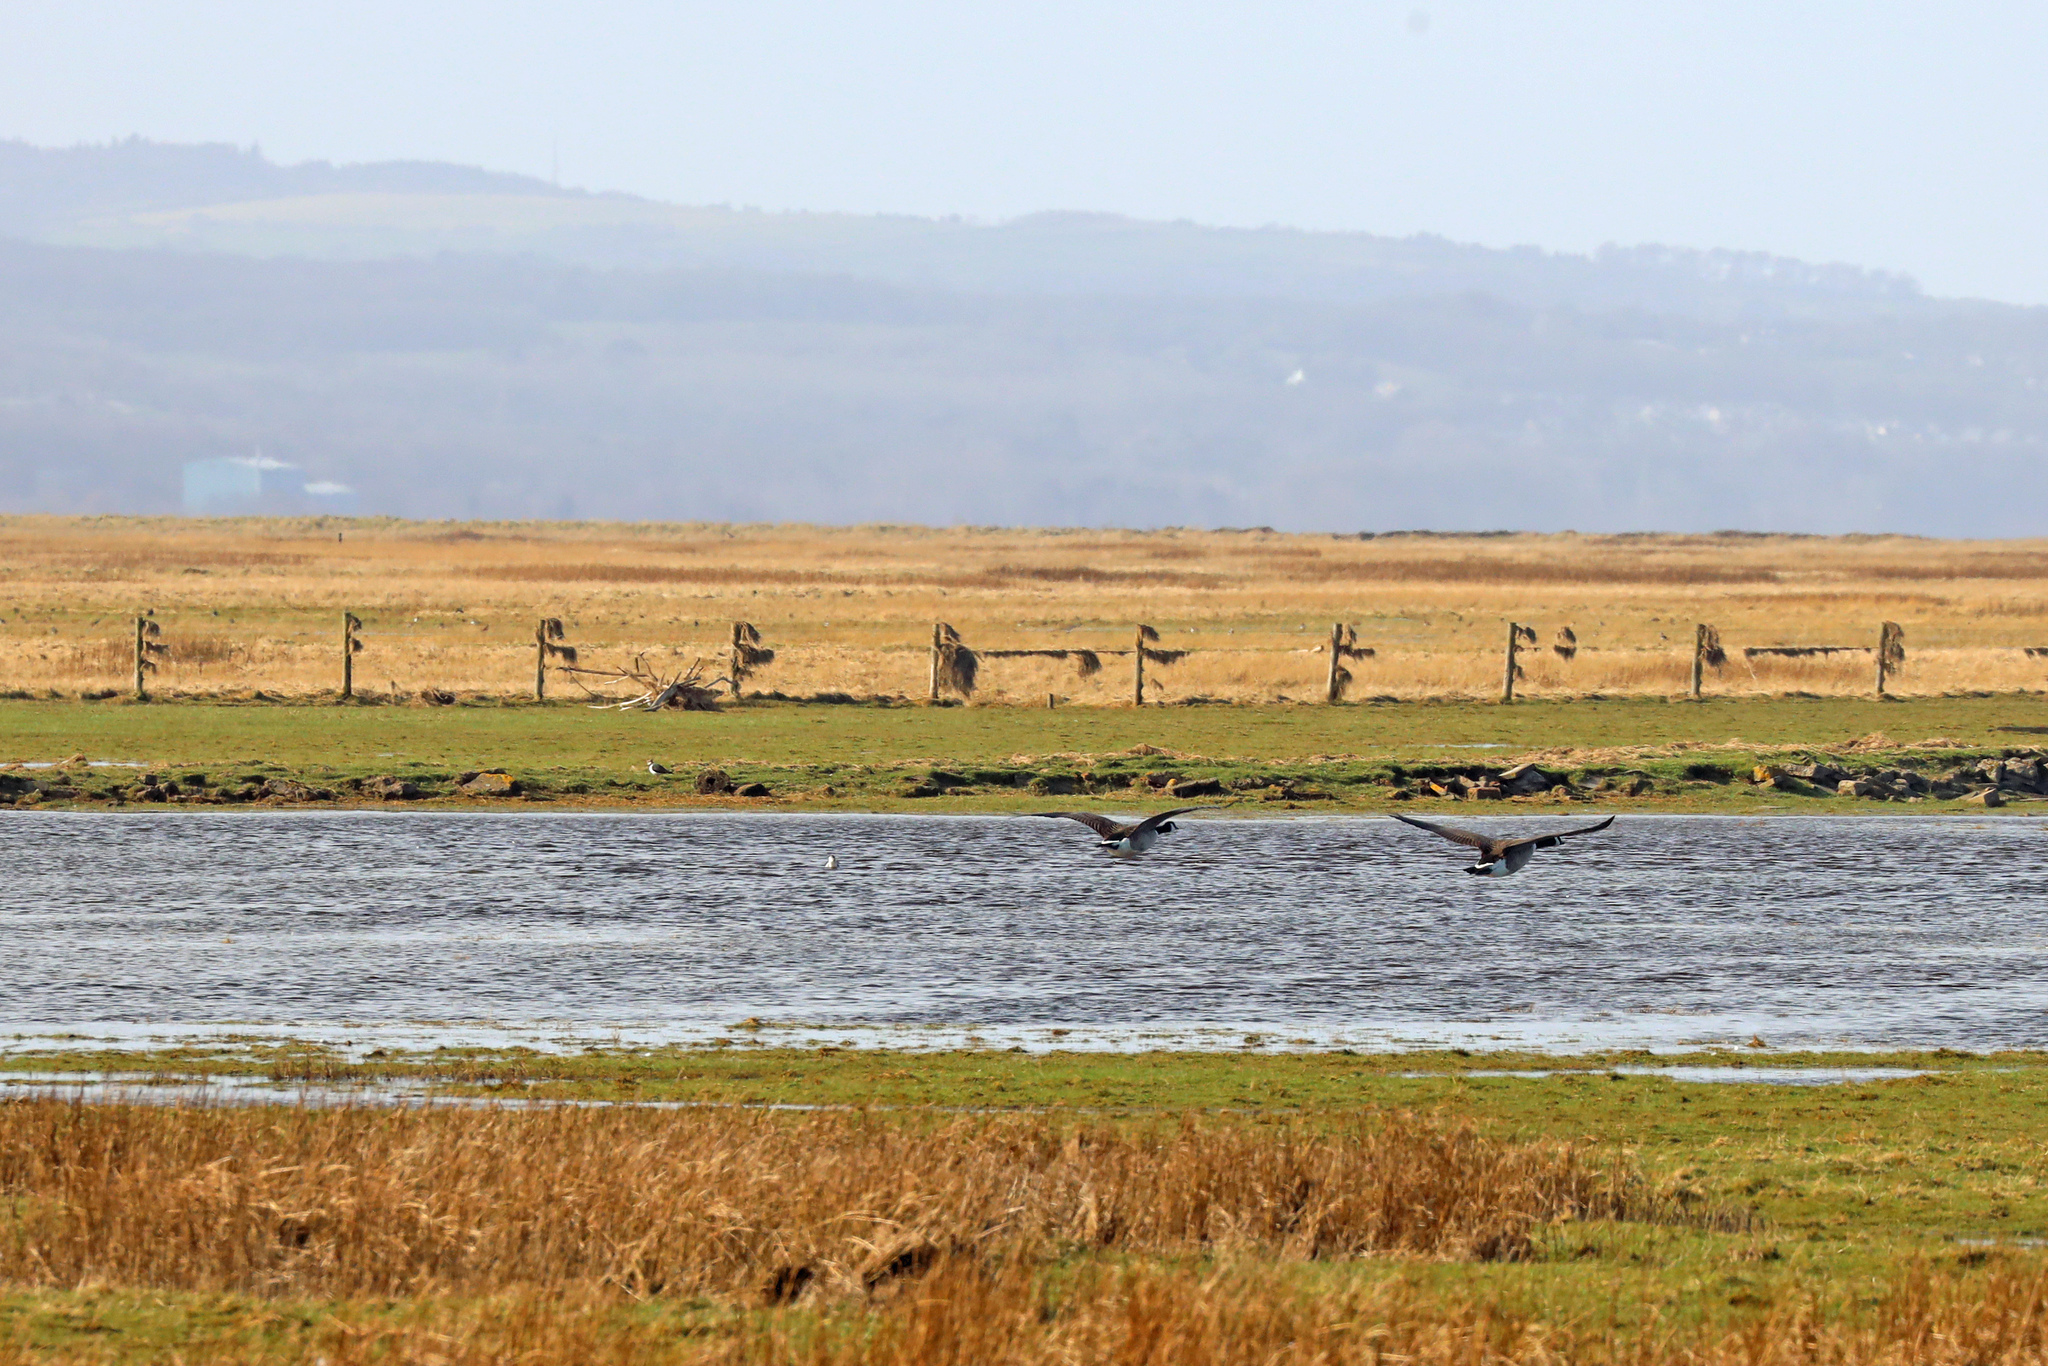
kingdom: Animalia
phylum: Chordata
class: Aves
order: Anseriformes
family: Anatidae
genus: Branta
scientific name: Branta canadensis
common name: Canada goose
